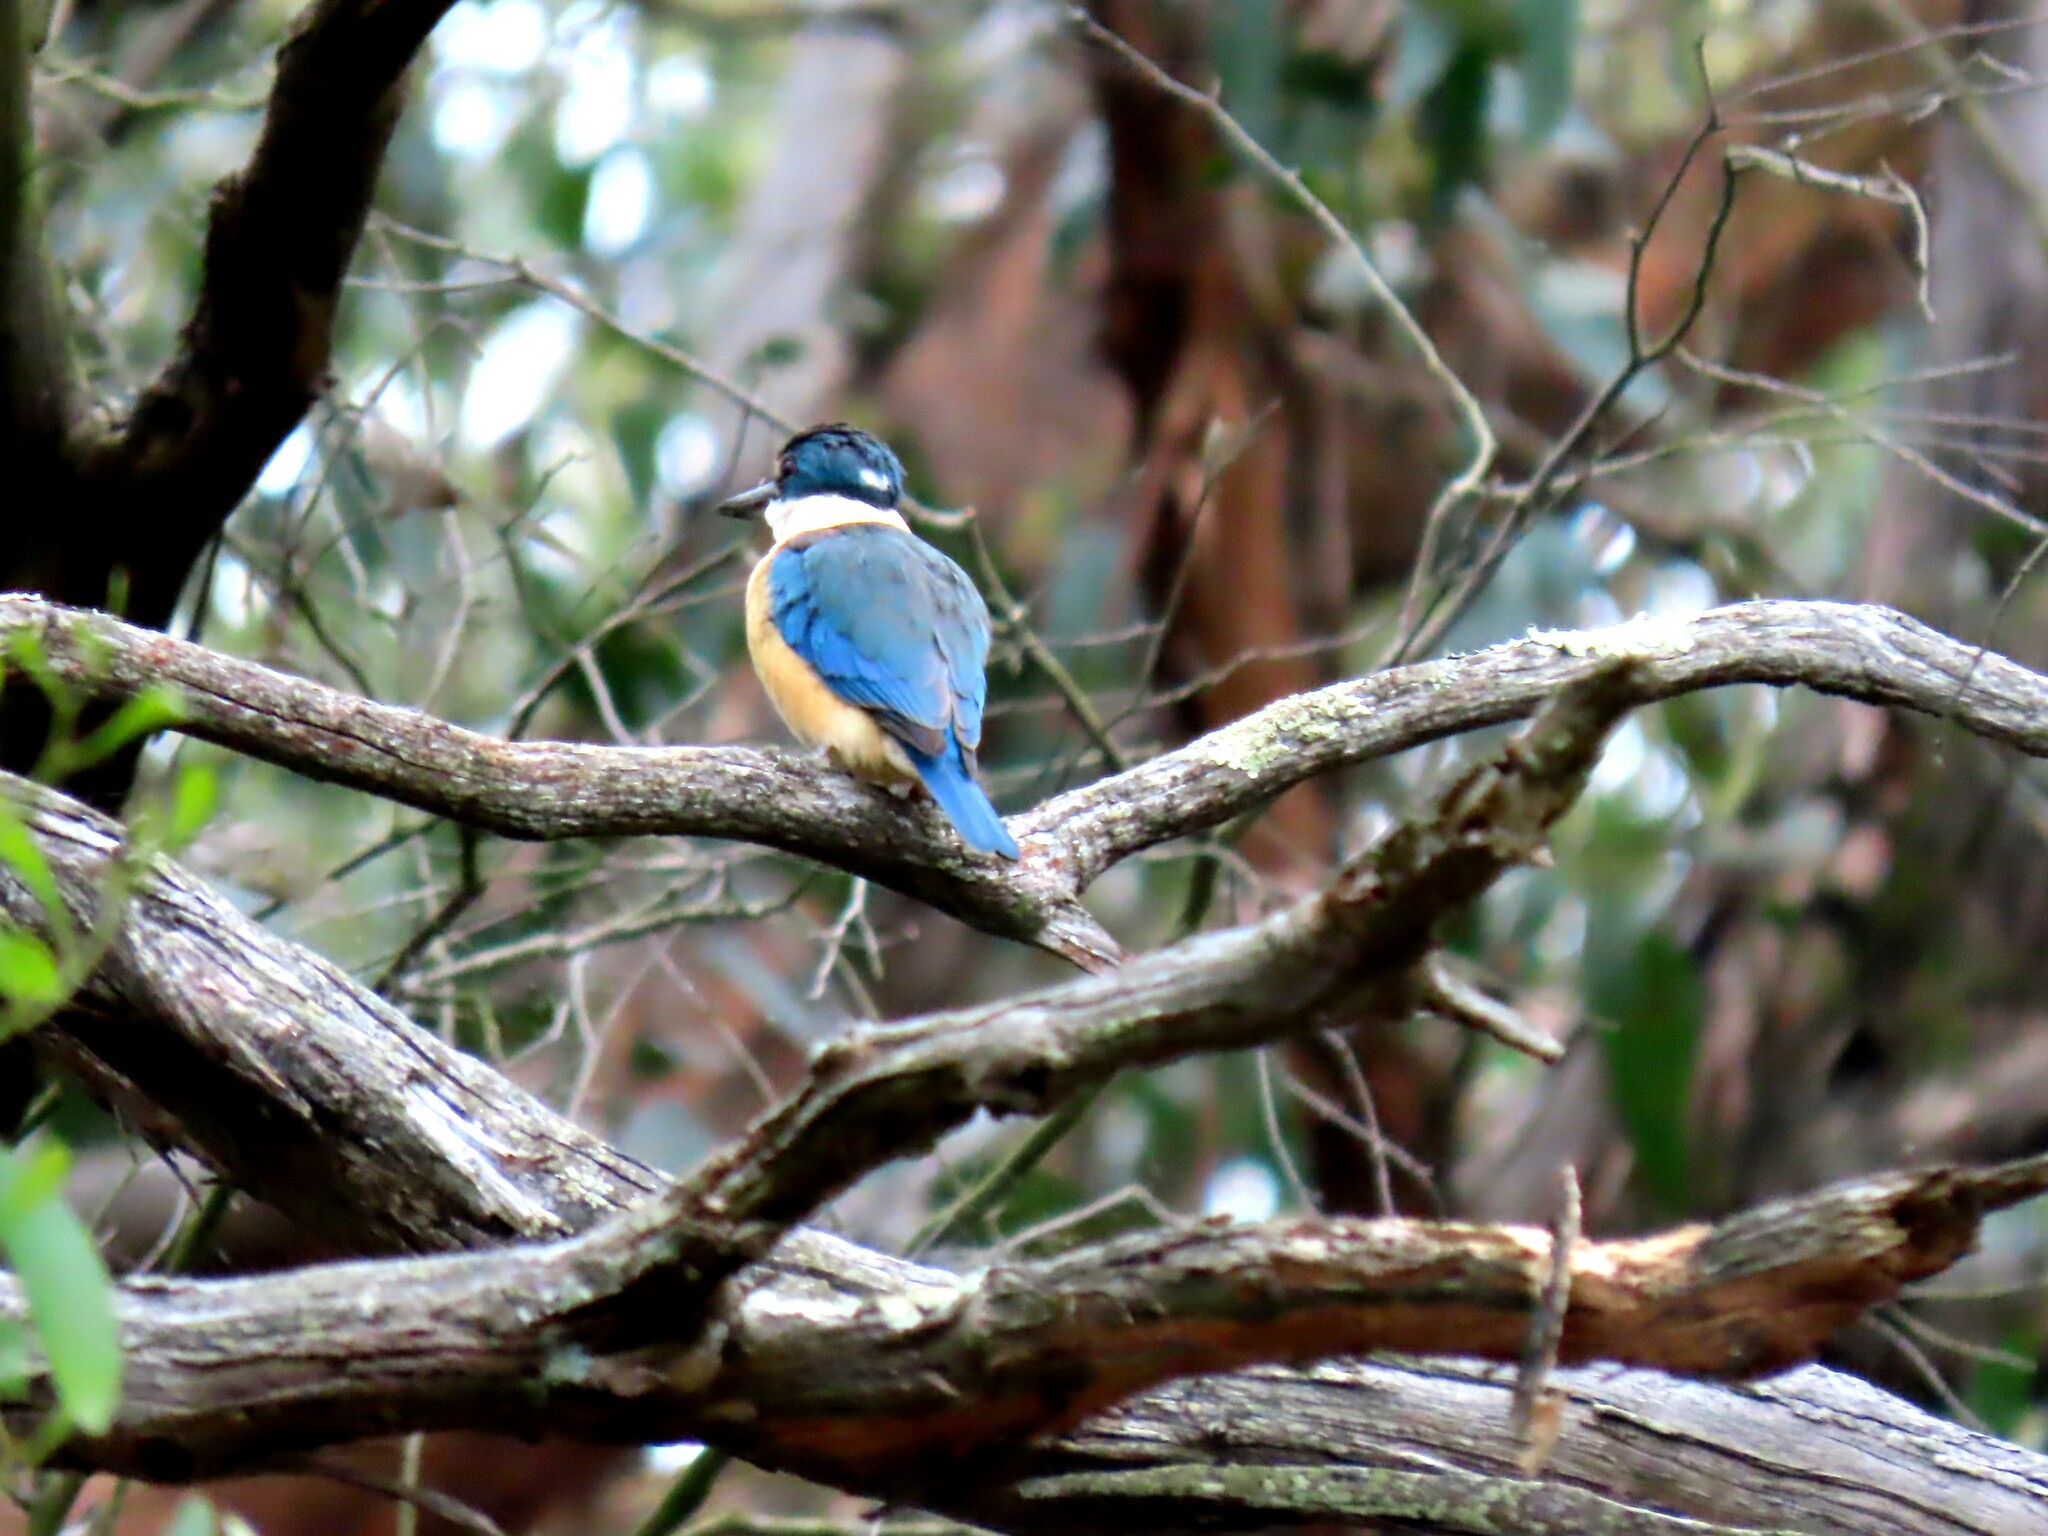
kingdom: Animalia
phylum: Chordata
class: Aves
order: Coraciiformes
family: Alcedinidae
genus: Todiramphus
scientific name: Todiramphus sanctus
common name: Sacred kingfisher
